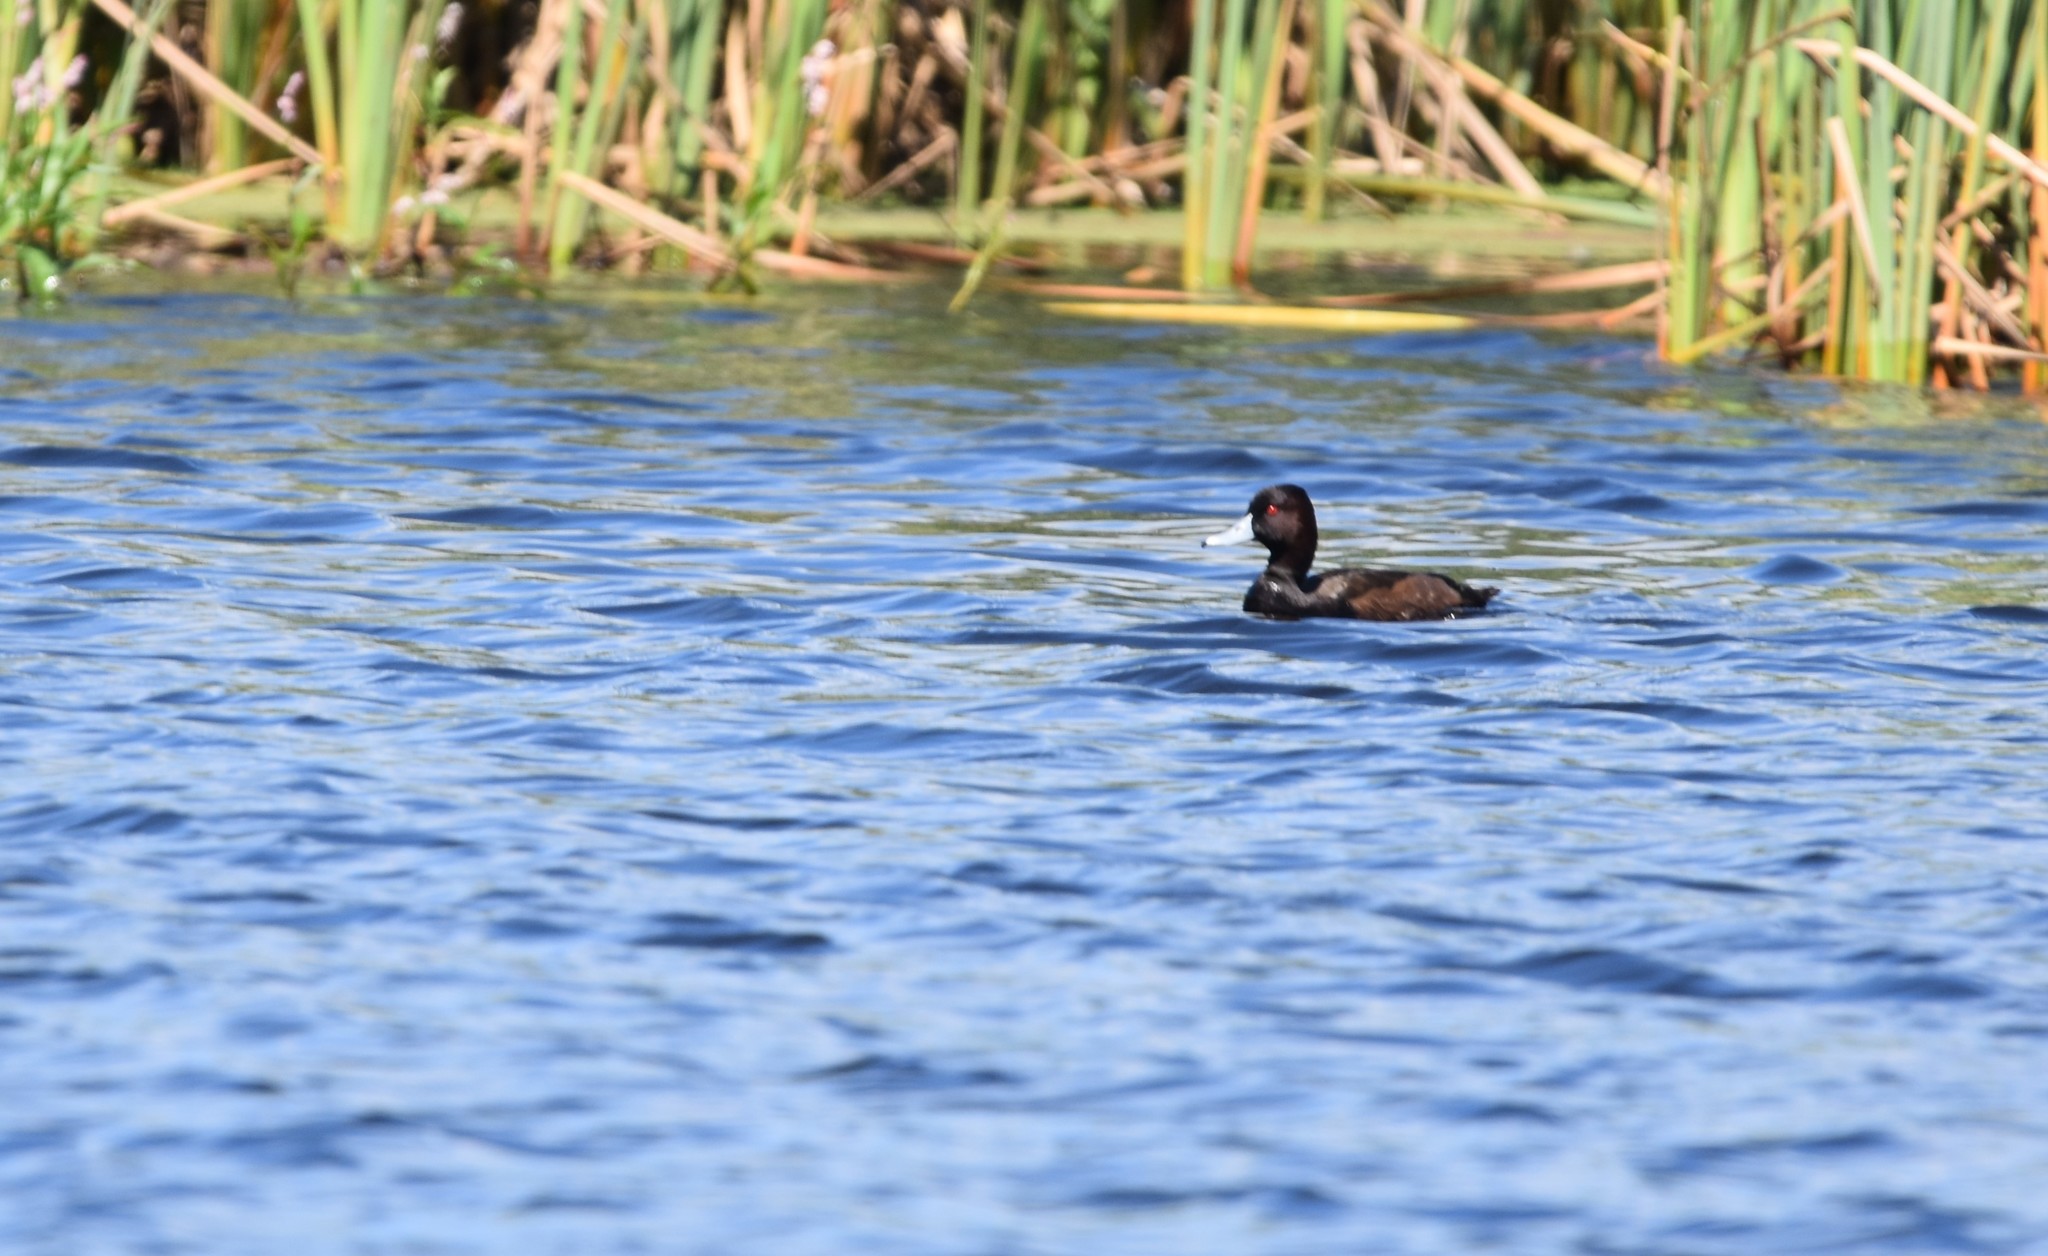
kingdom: Animalia
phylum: Chordata
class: Aves
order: Anseriformes
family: Anatidae
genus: Netta
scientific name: Netta erythrophthalma
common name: Southern pochard
